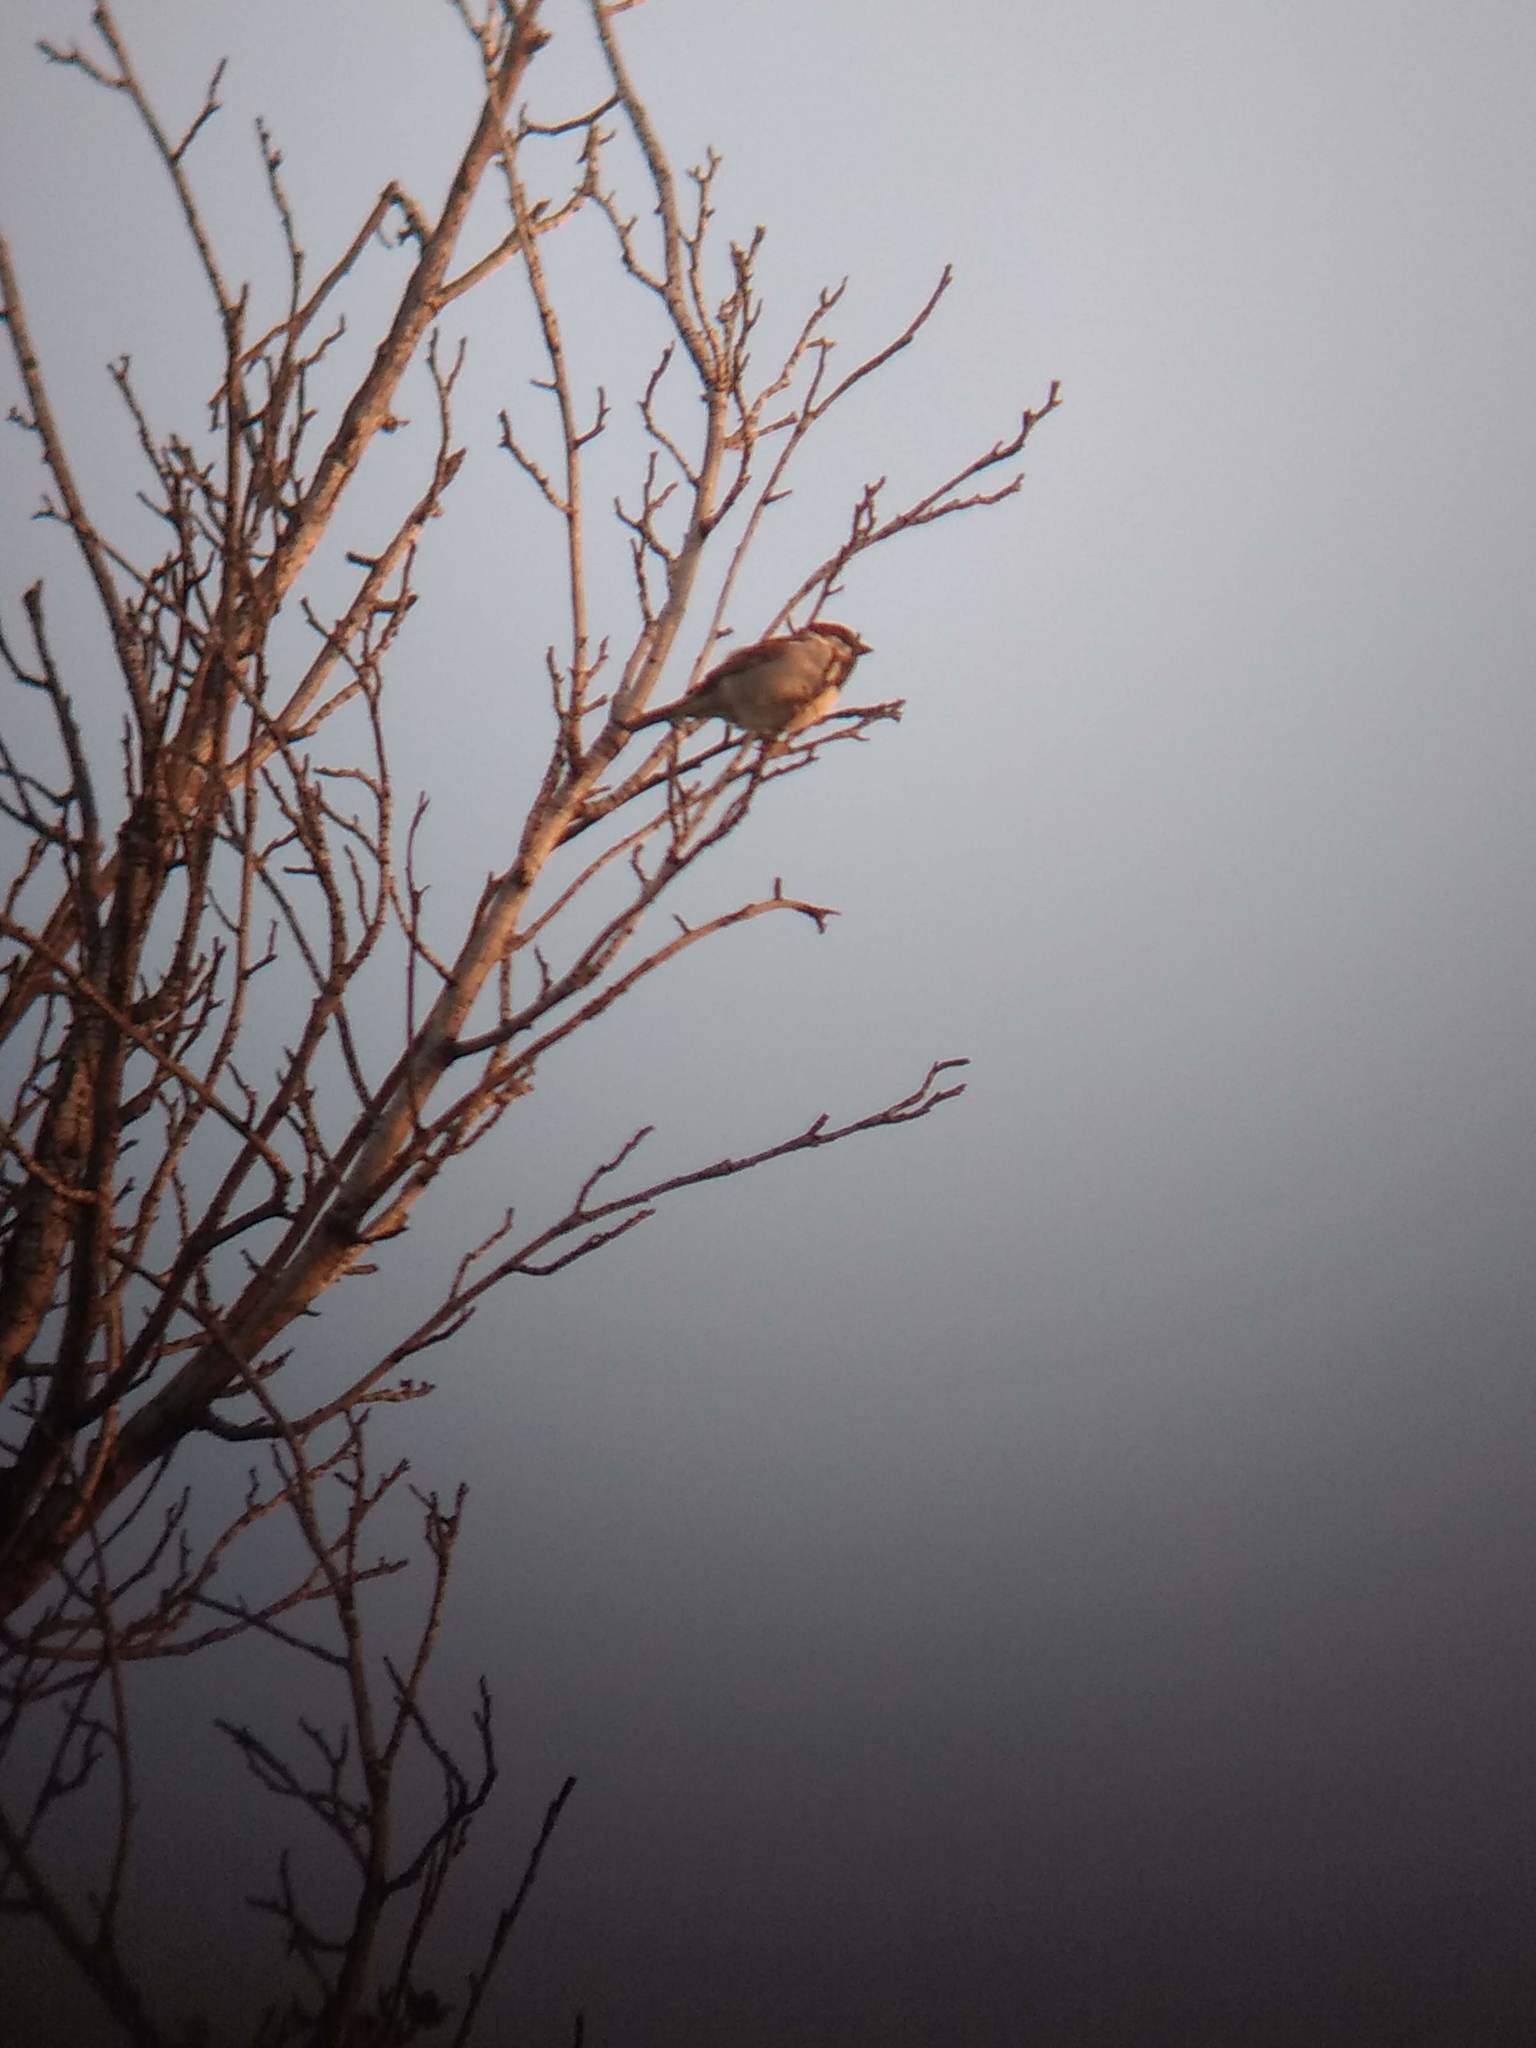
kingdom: Animalia
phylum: Chordata
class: Aves
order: Passeriformes
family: Passeridae
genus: Passer
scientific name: Passer domesticus
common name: House sparrow
